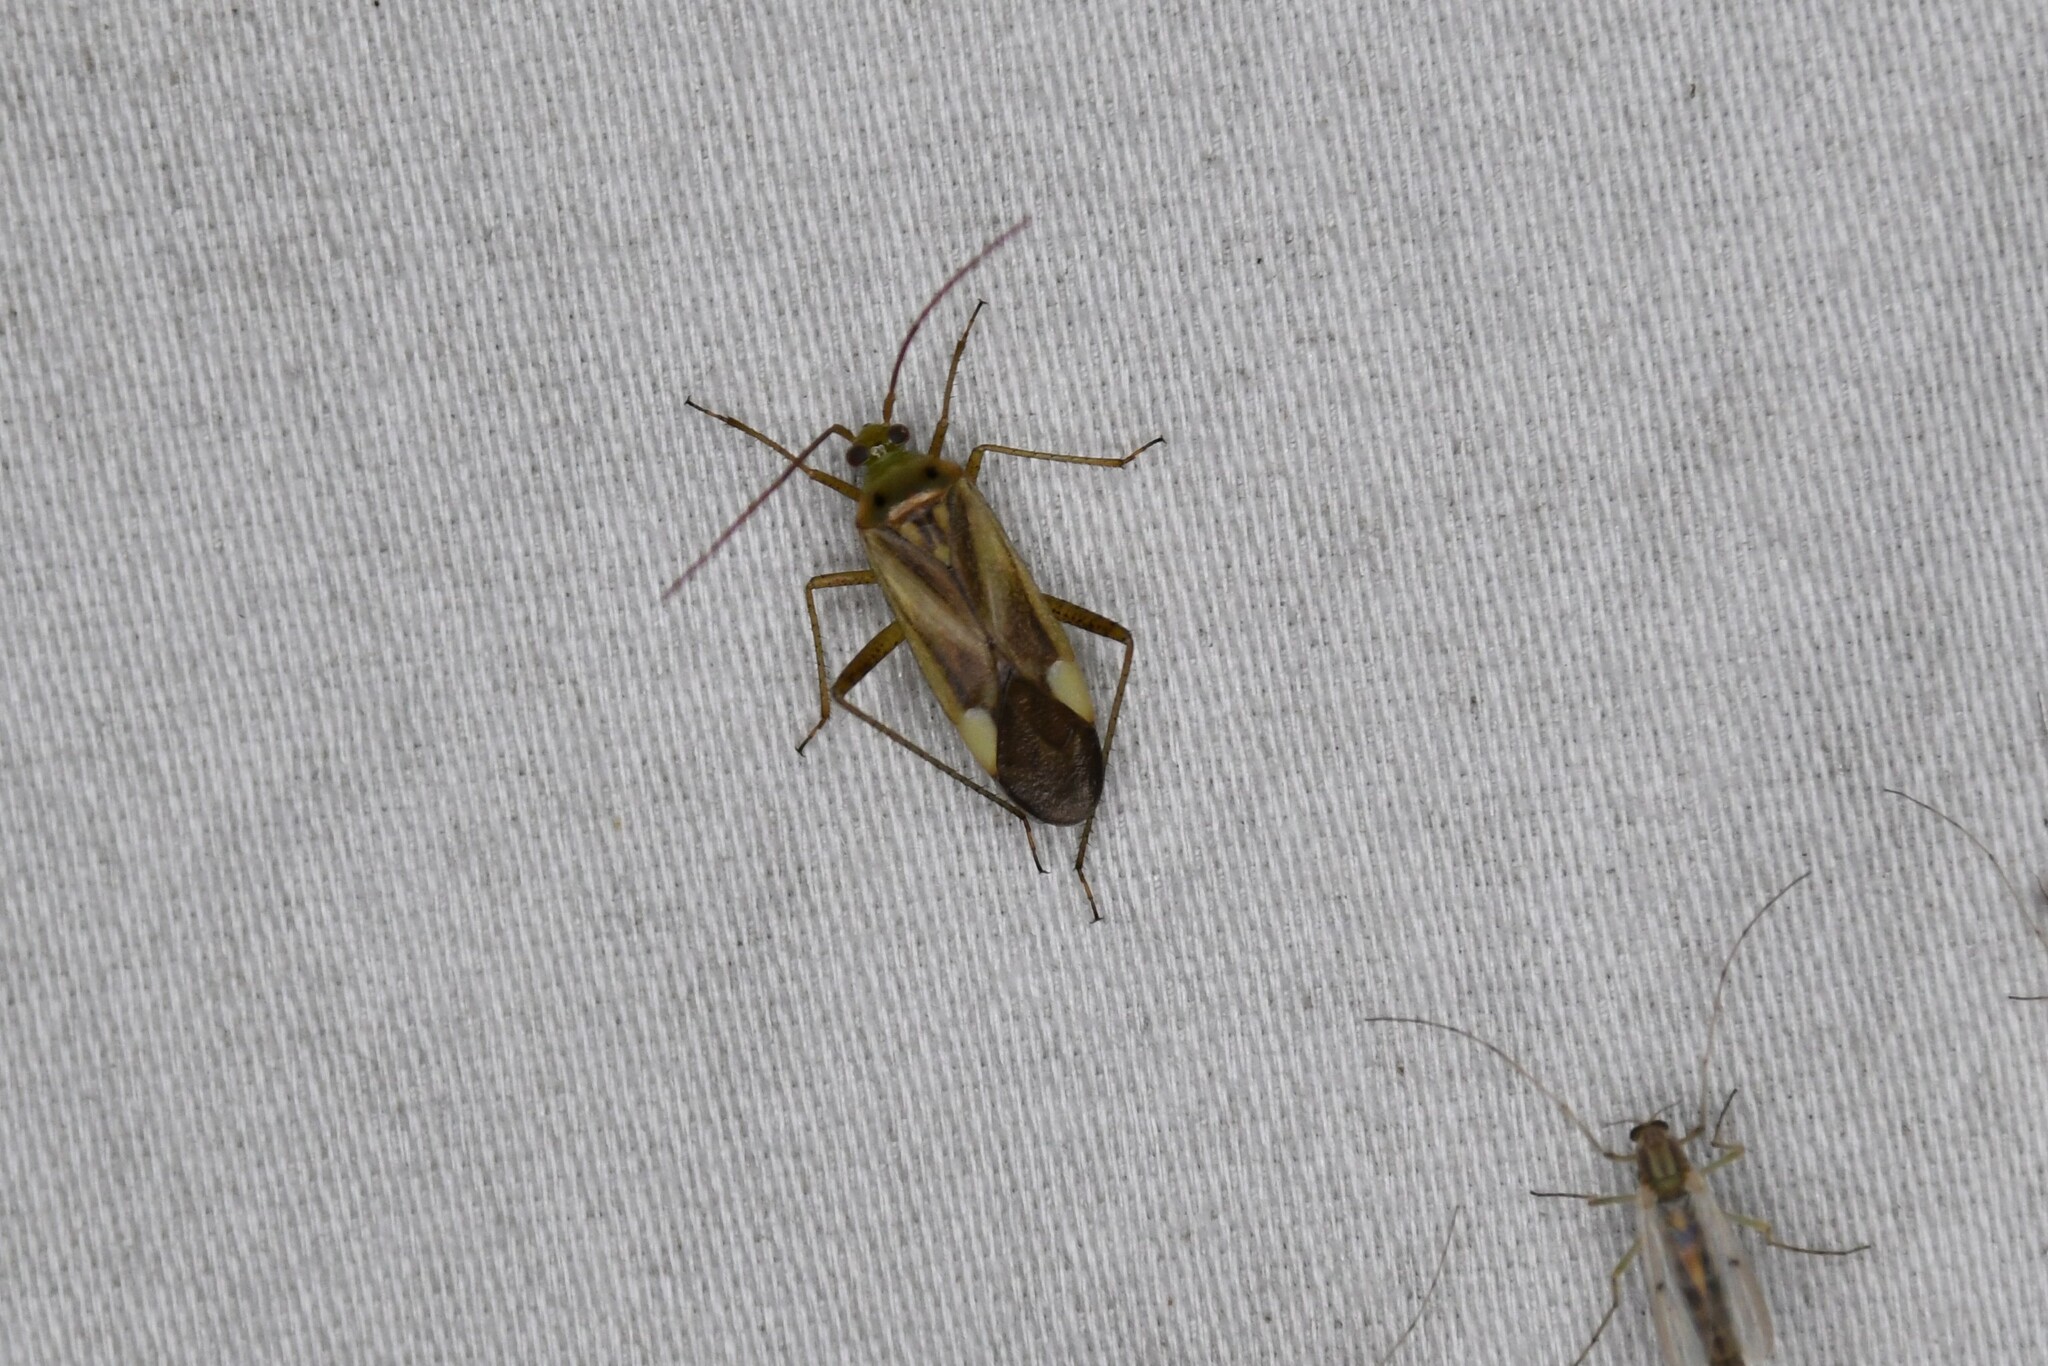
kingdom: Animalia
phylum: Arthropoda
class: Insecta
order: Hemiptera
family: Miridae
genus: Adelphocoris
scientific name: Adelphocoris lineolatus
